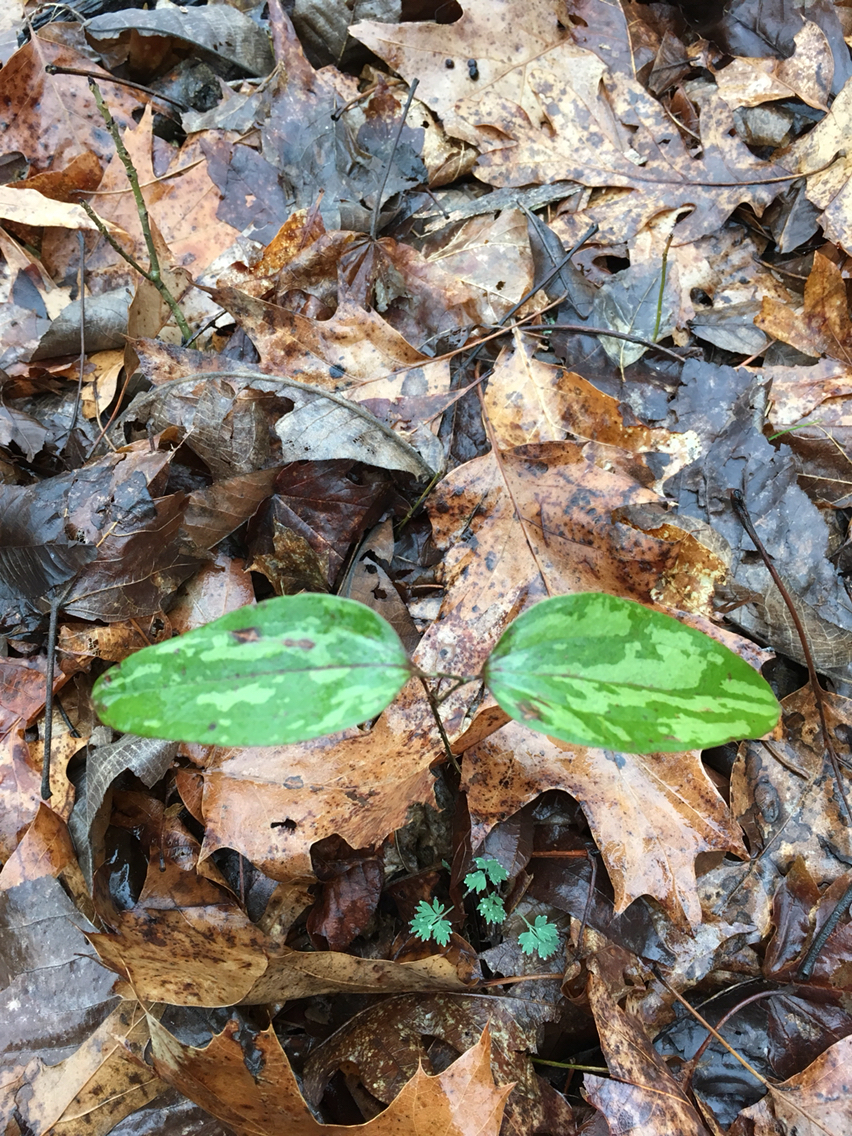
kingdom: Plantae
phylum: Tracheophyta
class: Liliopsida
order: Liliales
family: Smilacaceae
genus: Smilax
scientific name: Smilax glauca
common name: Cat greenbrier
